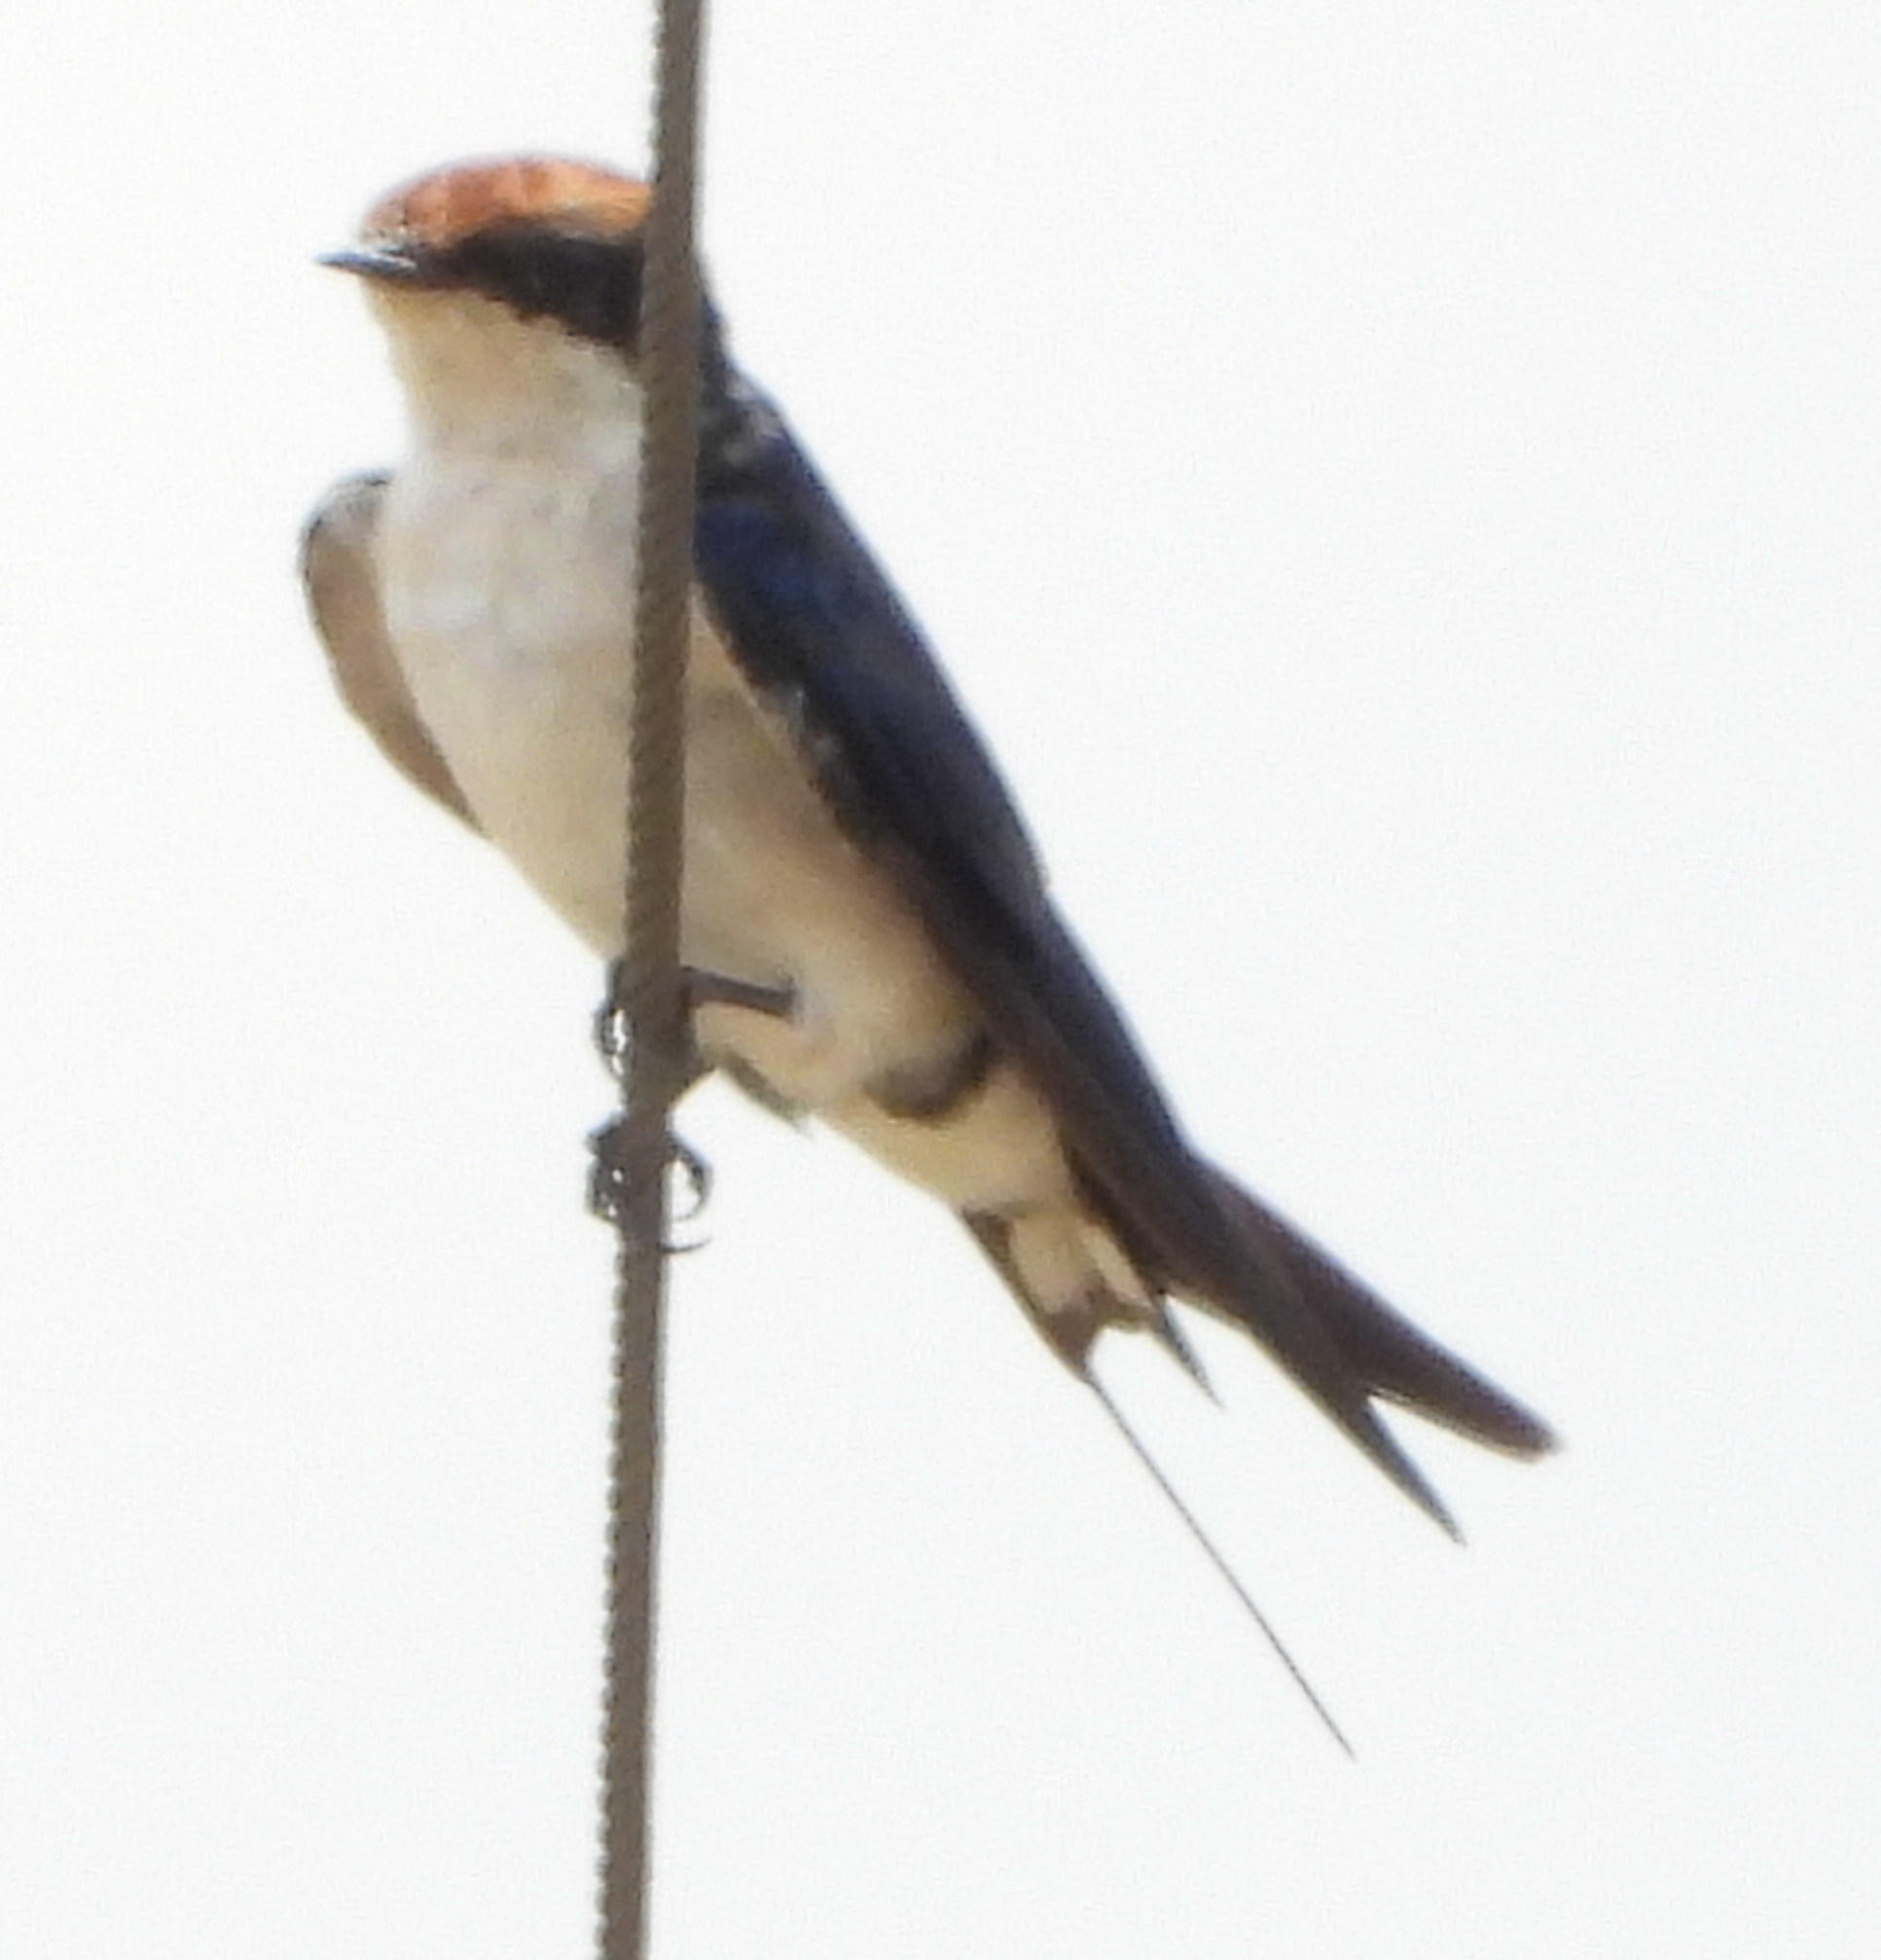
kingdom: Animalia
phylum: Chordata
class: Aves
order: Passeriformes
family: Hirundinidae
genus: Hirundo
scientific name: Hirundo smithii
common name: Wire-tailed swallow
